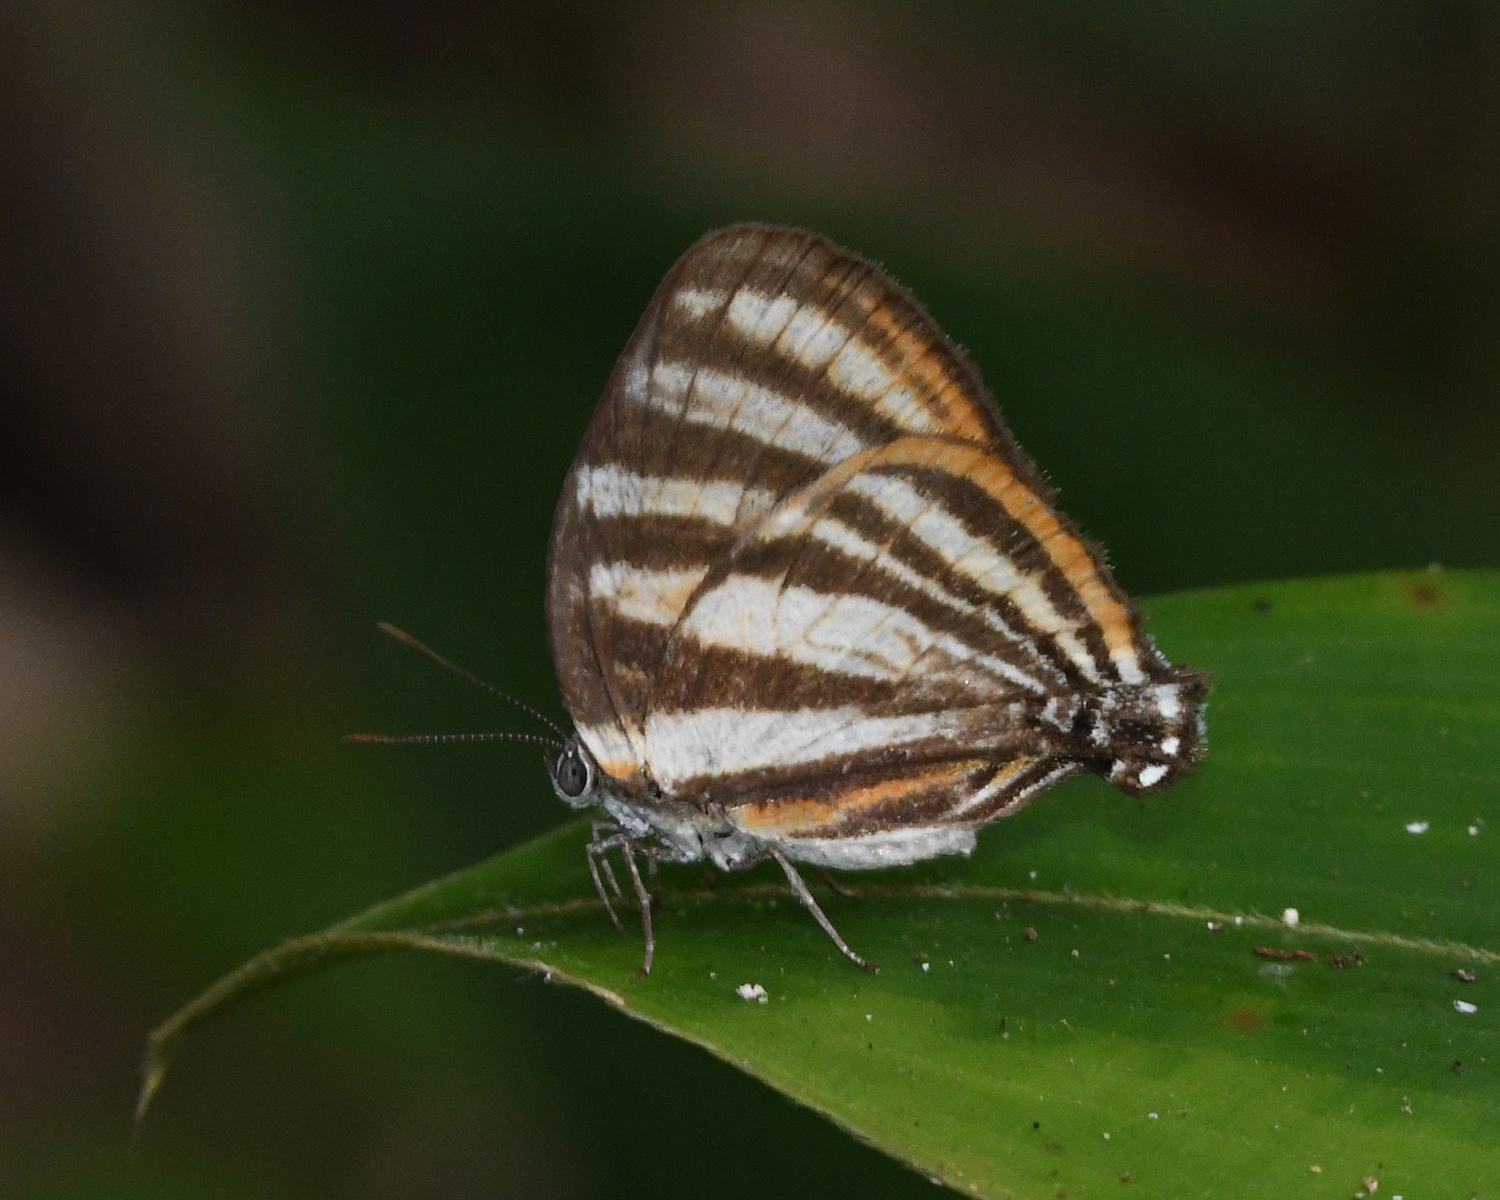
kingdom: Animalia
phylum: Arthropoda
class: Insecta
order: Lepidoptera
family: Lycaenidae
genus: Thecla
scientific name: Thecla aetolus
